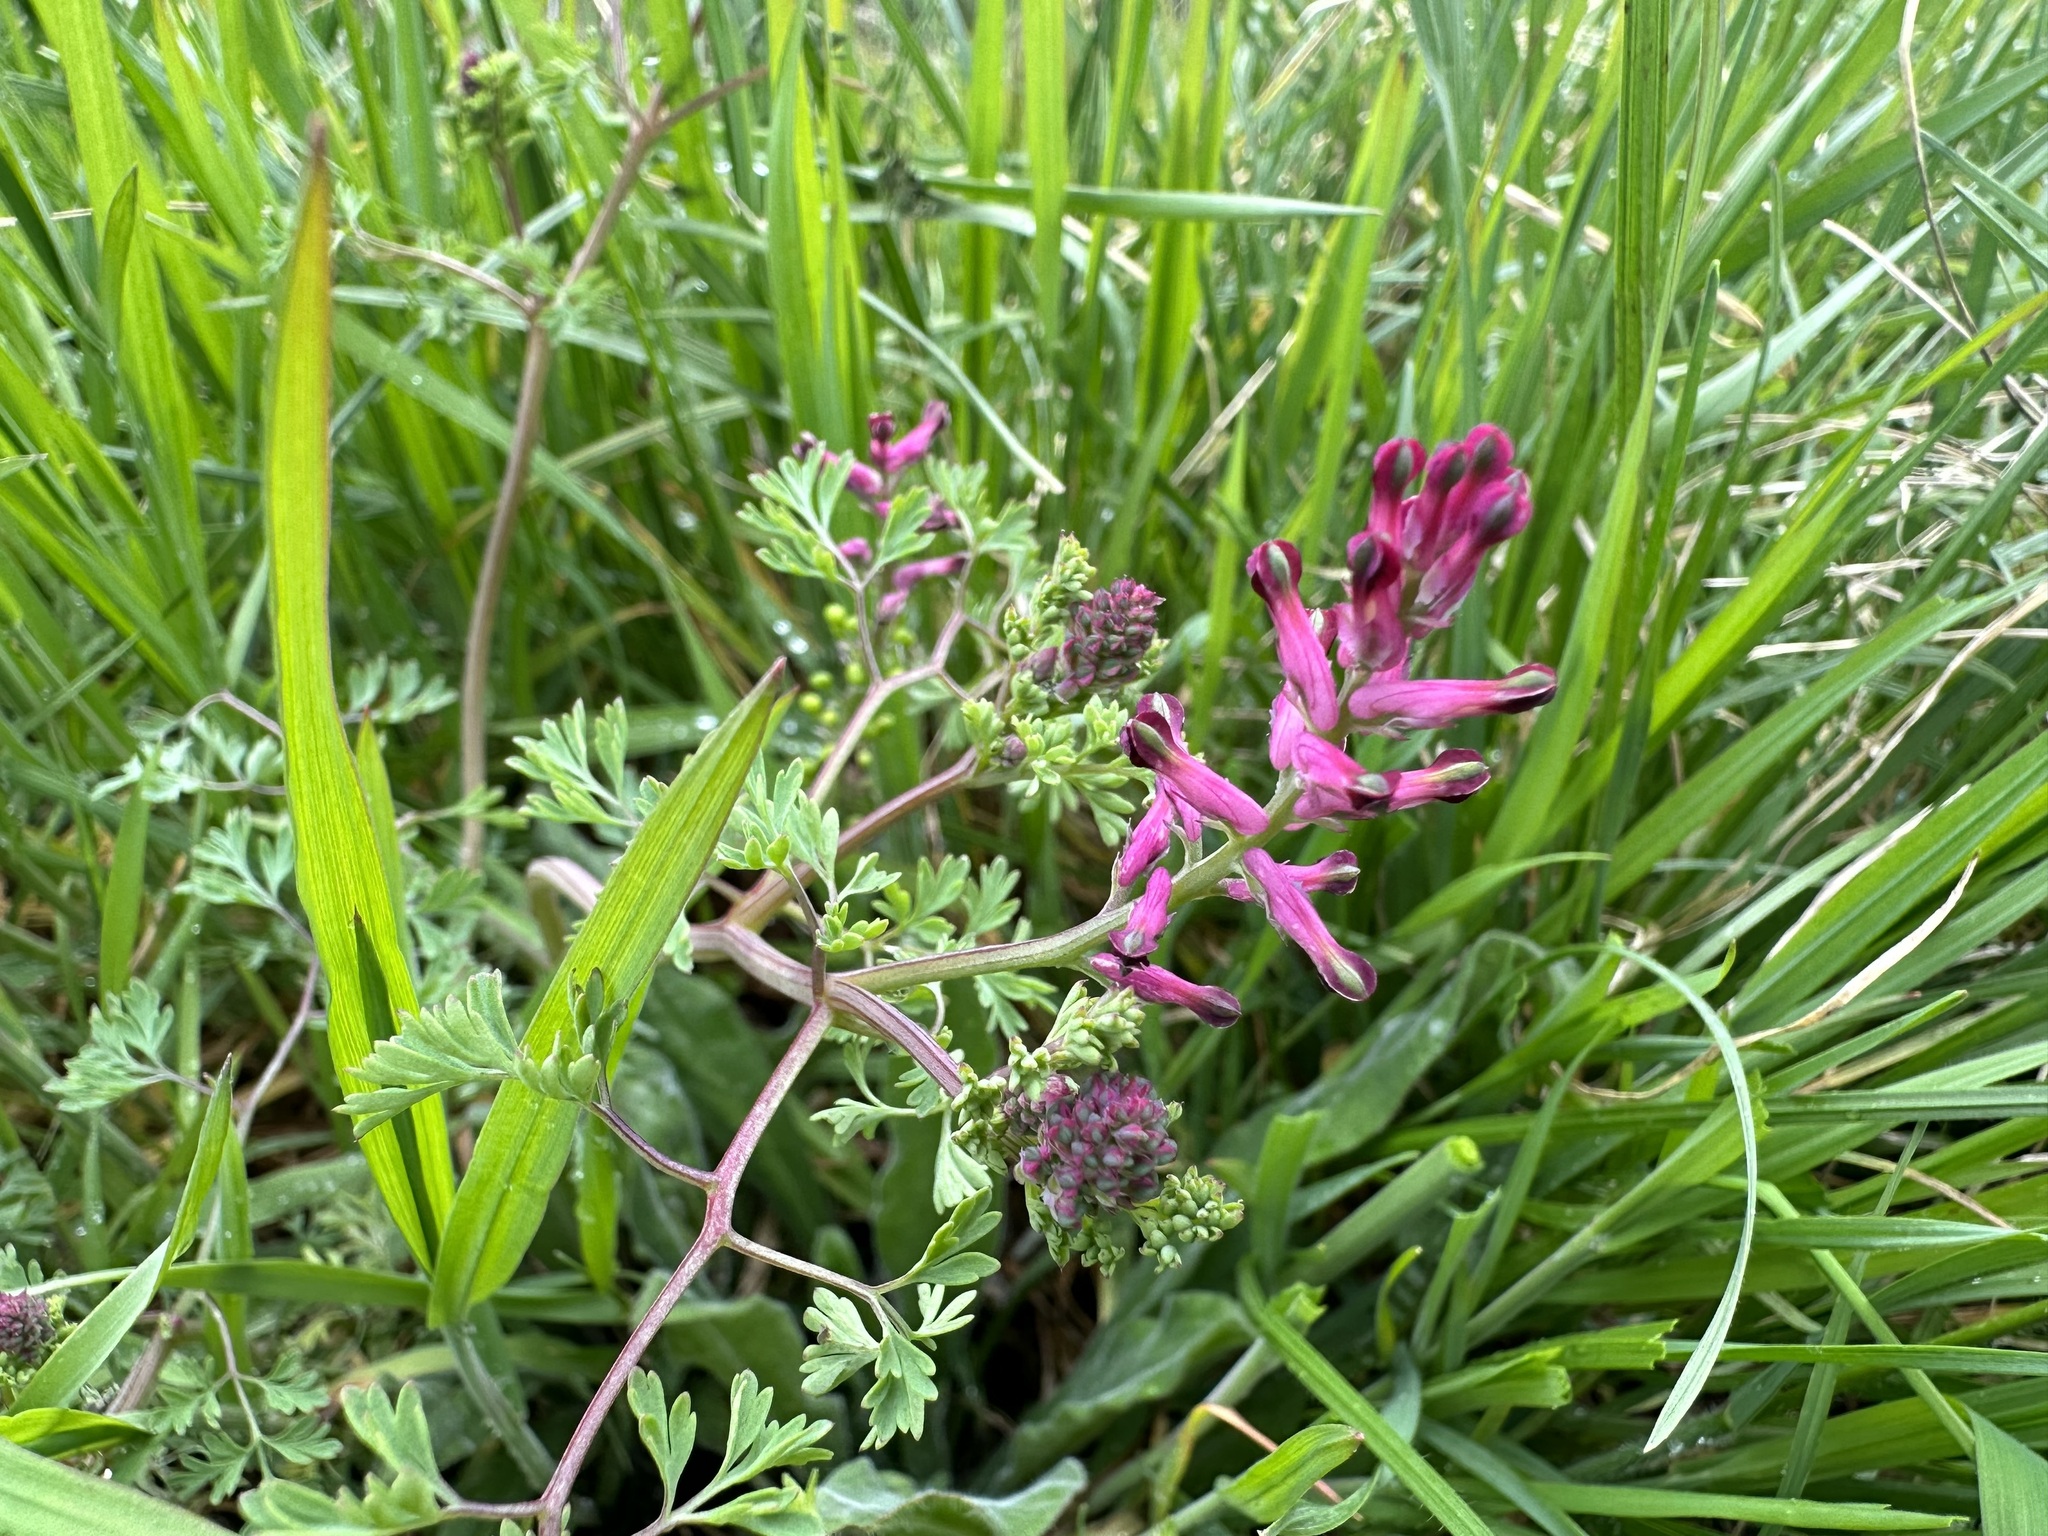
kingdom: Plantae
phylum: Tracheophyta
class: Magnoliopsida
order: Ranunculales
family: Papaveraceae
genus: Fumaria
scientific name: Fumaria officinalis
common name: Common fumitory
